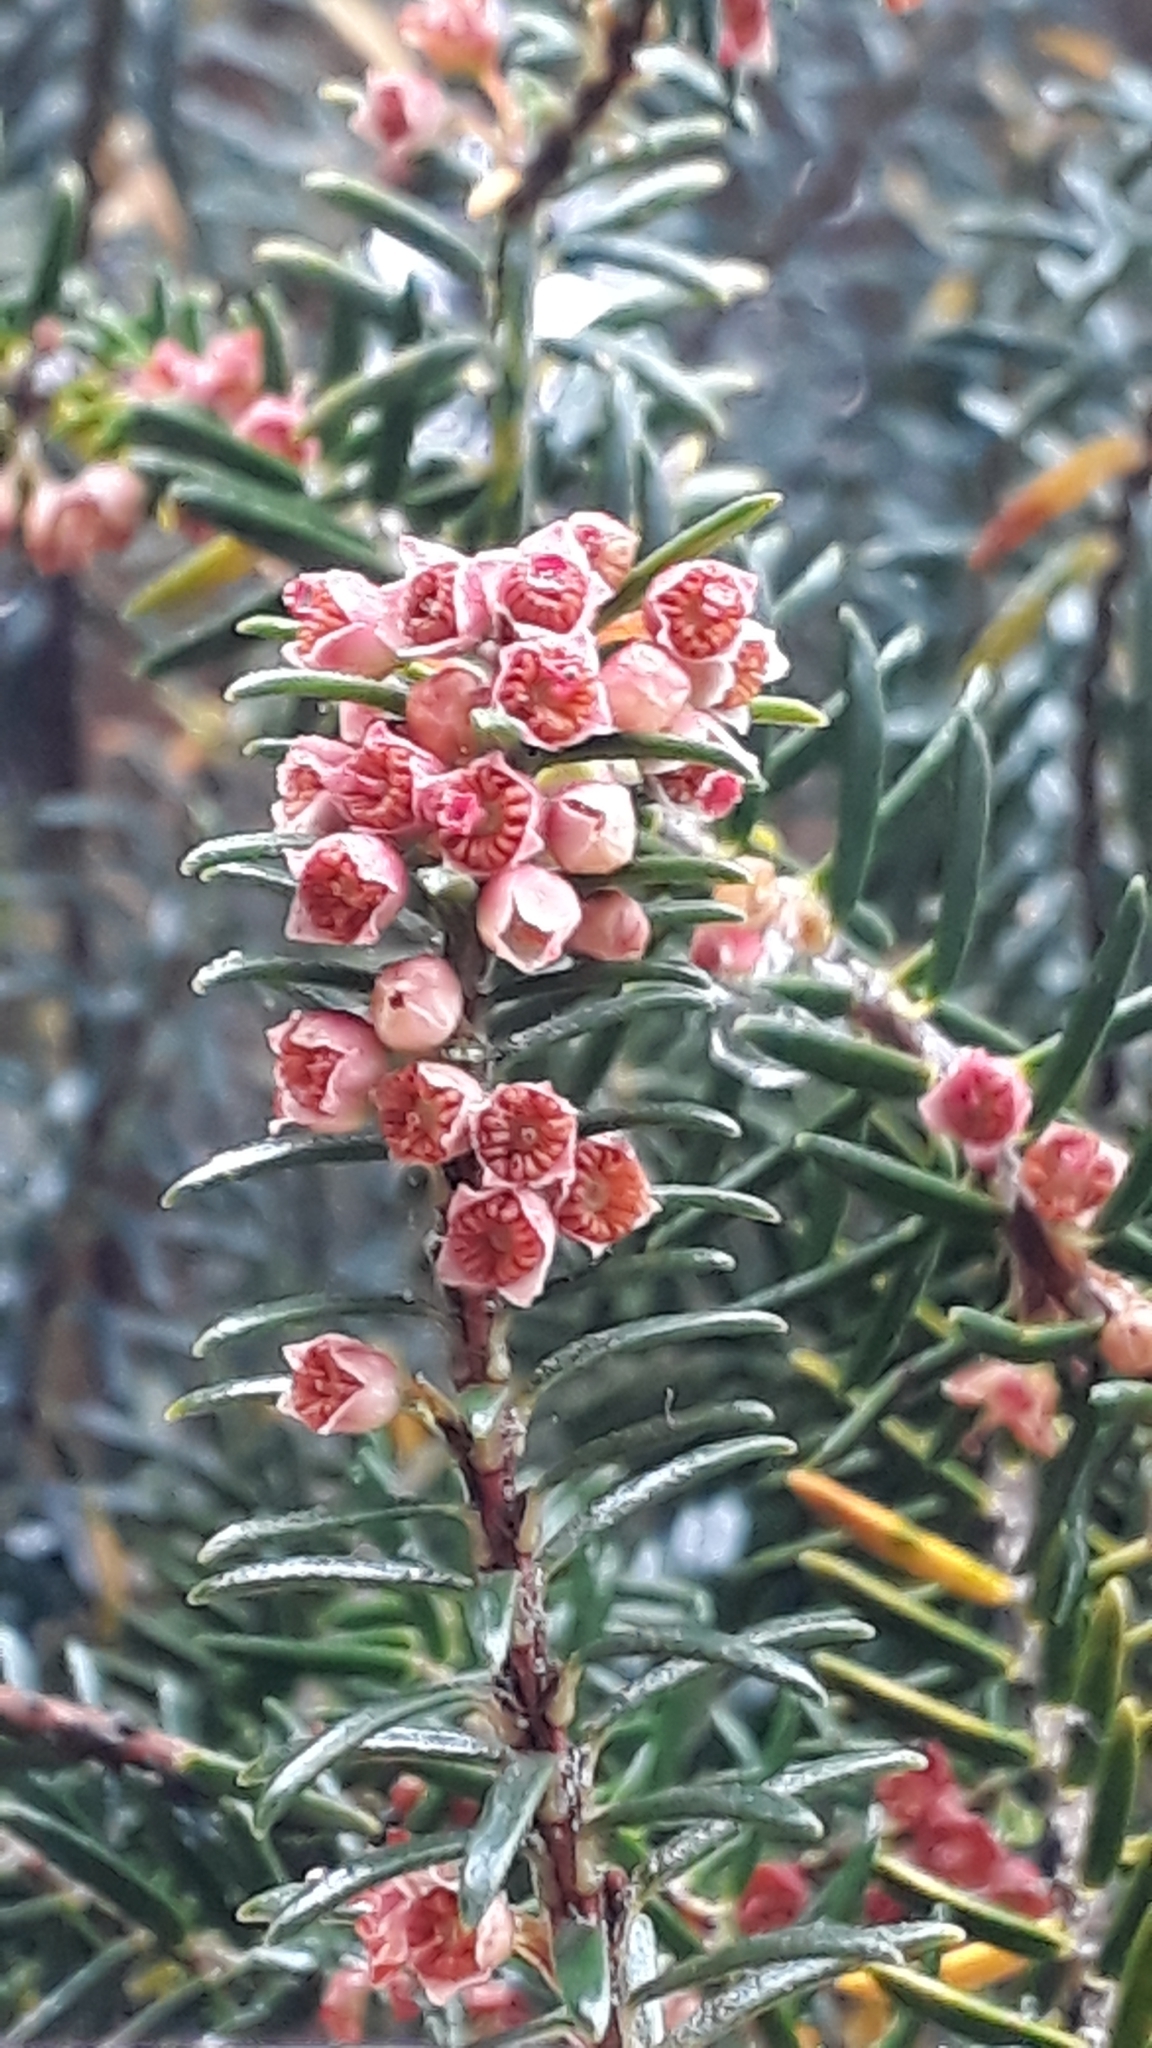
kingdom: Plantae
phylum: Tracheophyta
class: Magnoliopsida
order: Ericales
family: Ericaceae
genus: Erica
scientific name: Erica platycodon
